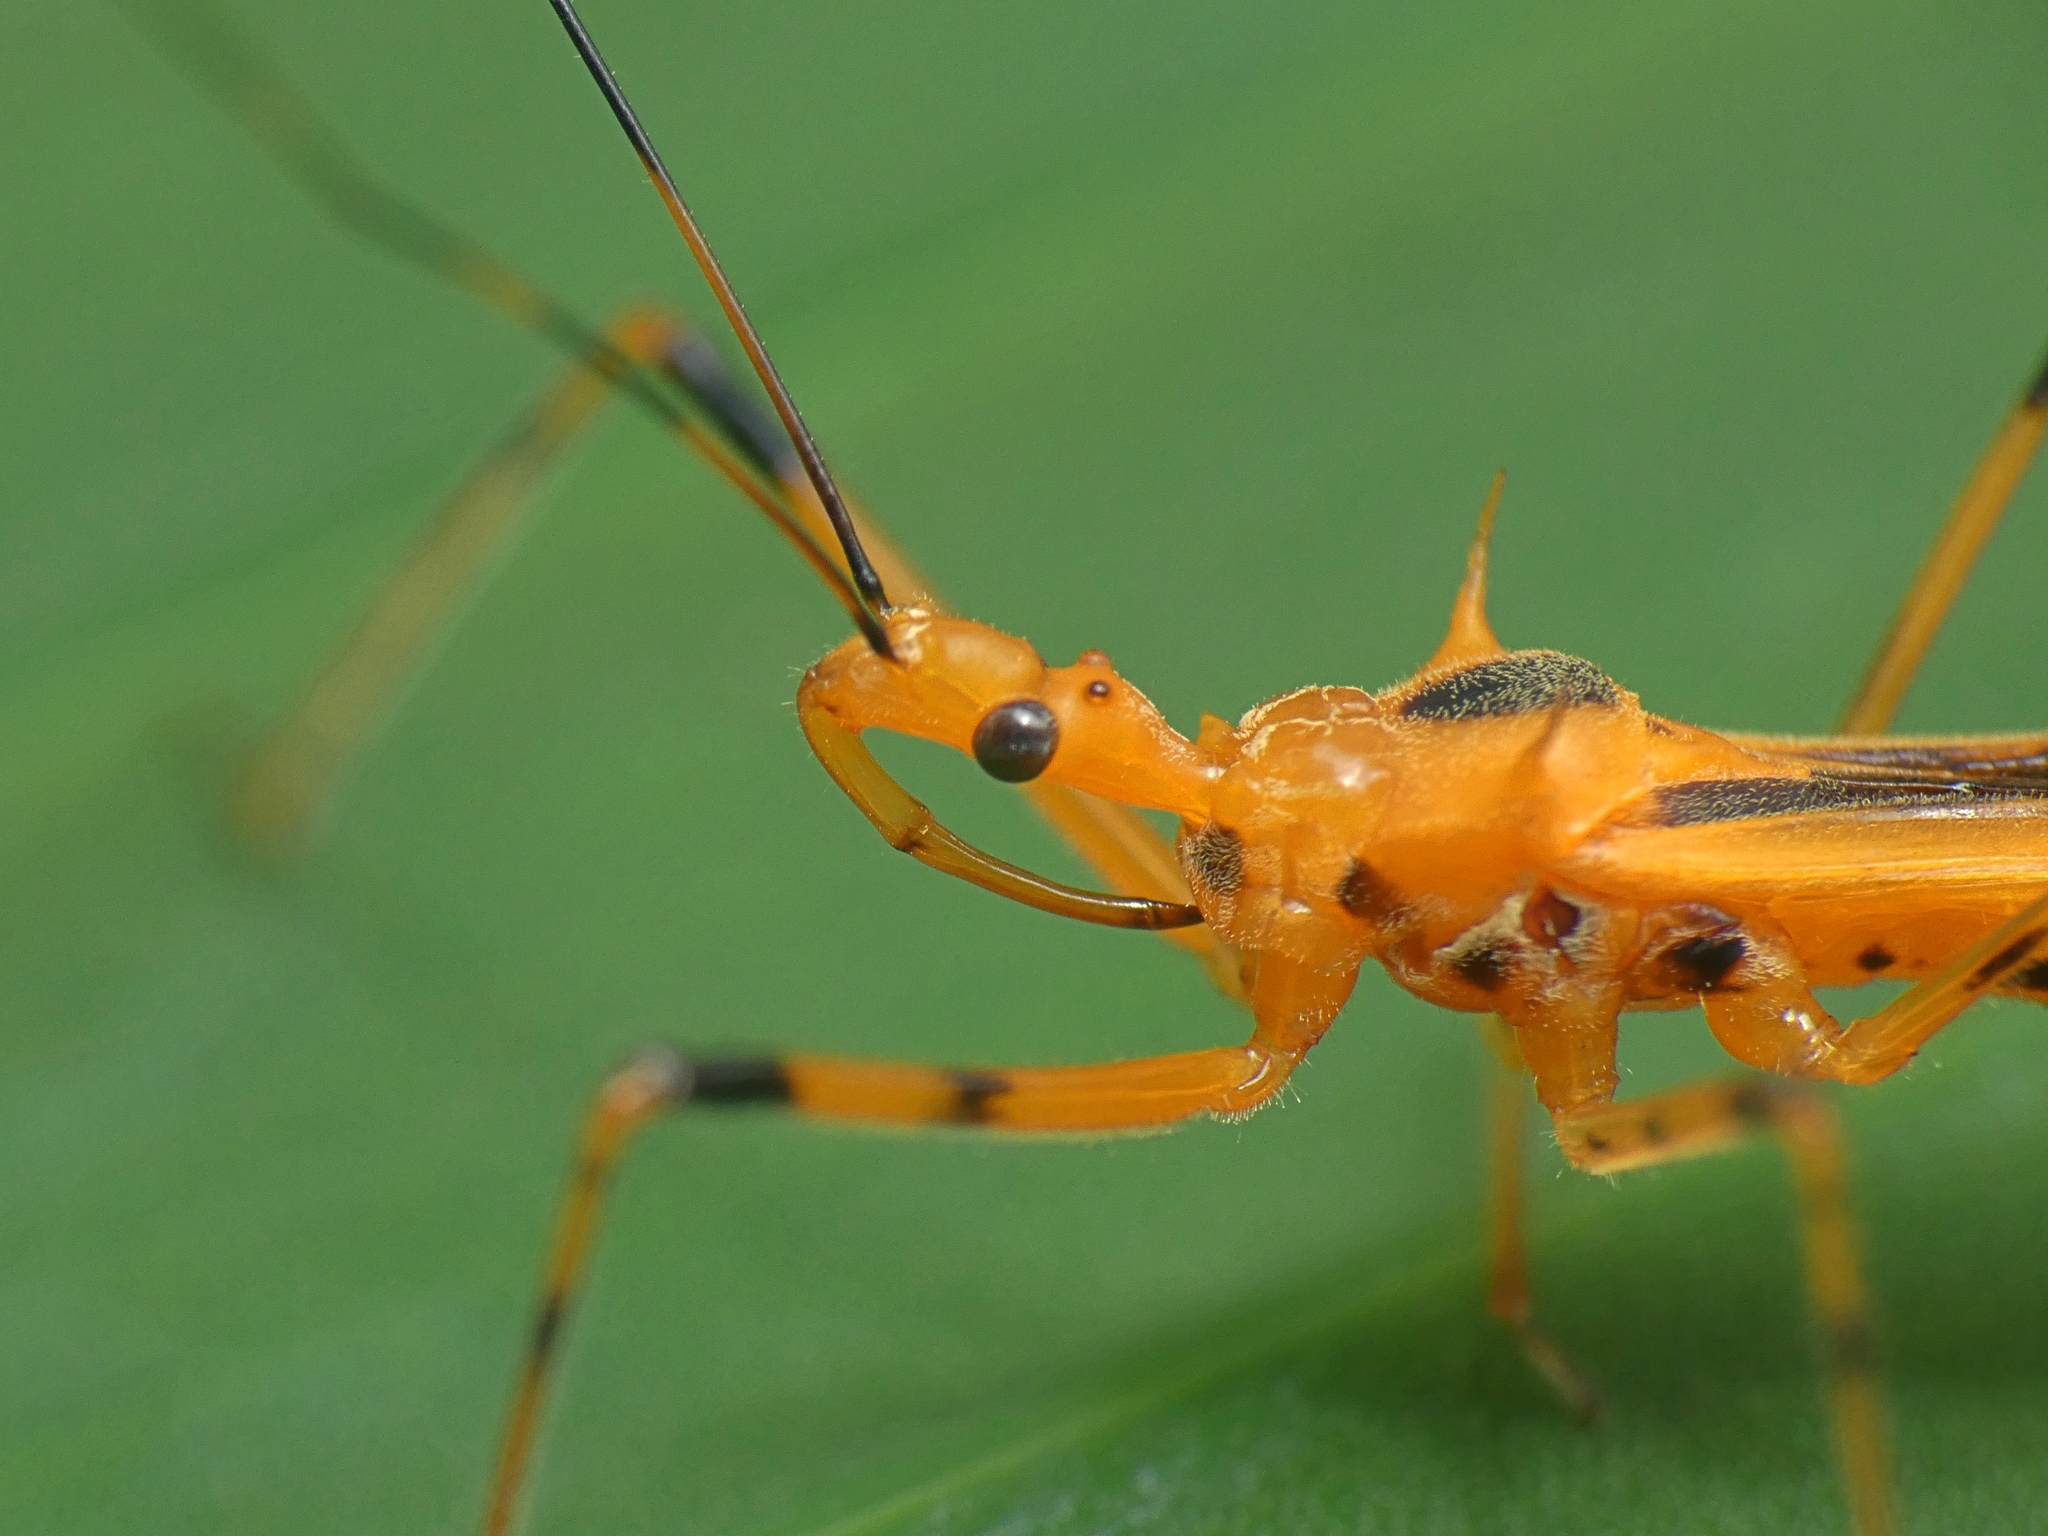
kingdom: Animalia
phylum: Arthropoda
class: Insecta
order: Hemiptera
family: Reduviidae
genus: Euagoras
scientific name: Euagoras dorycus
